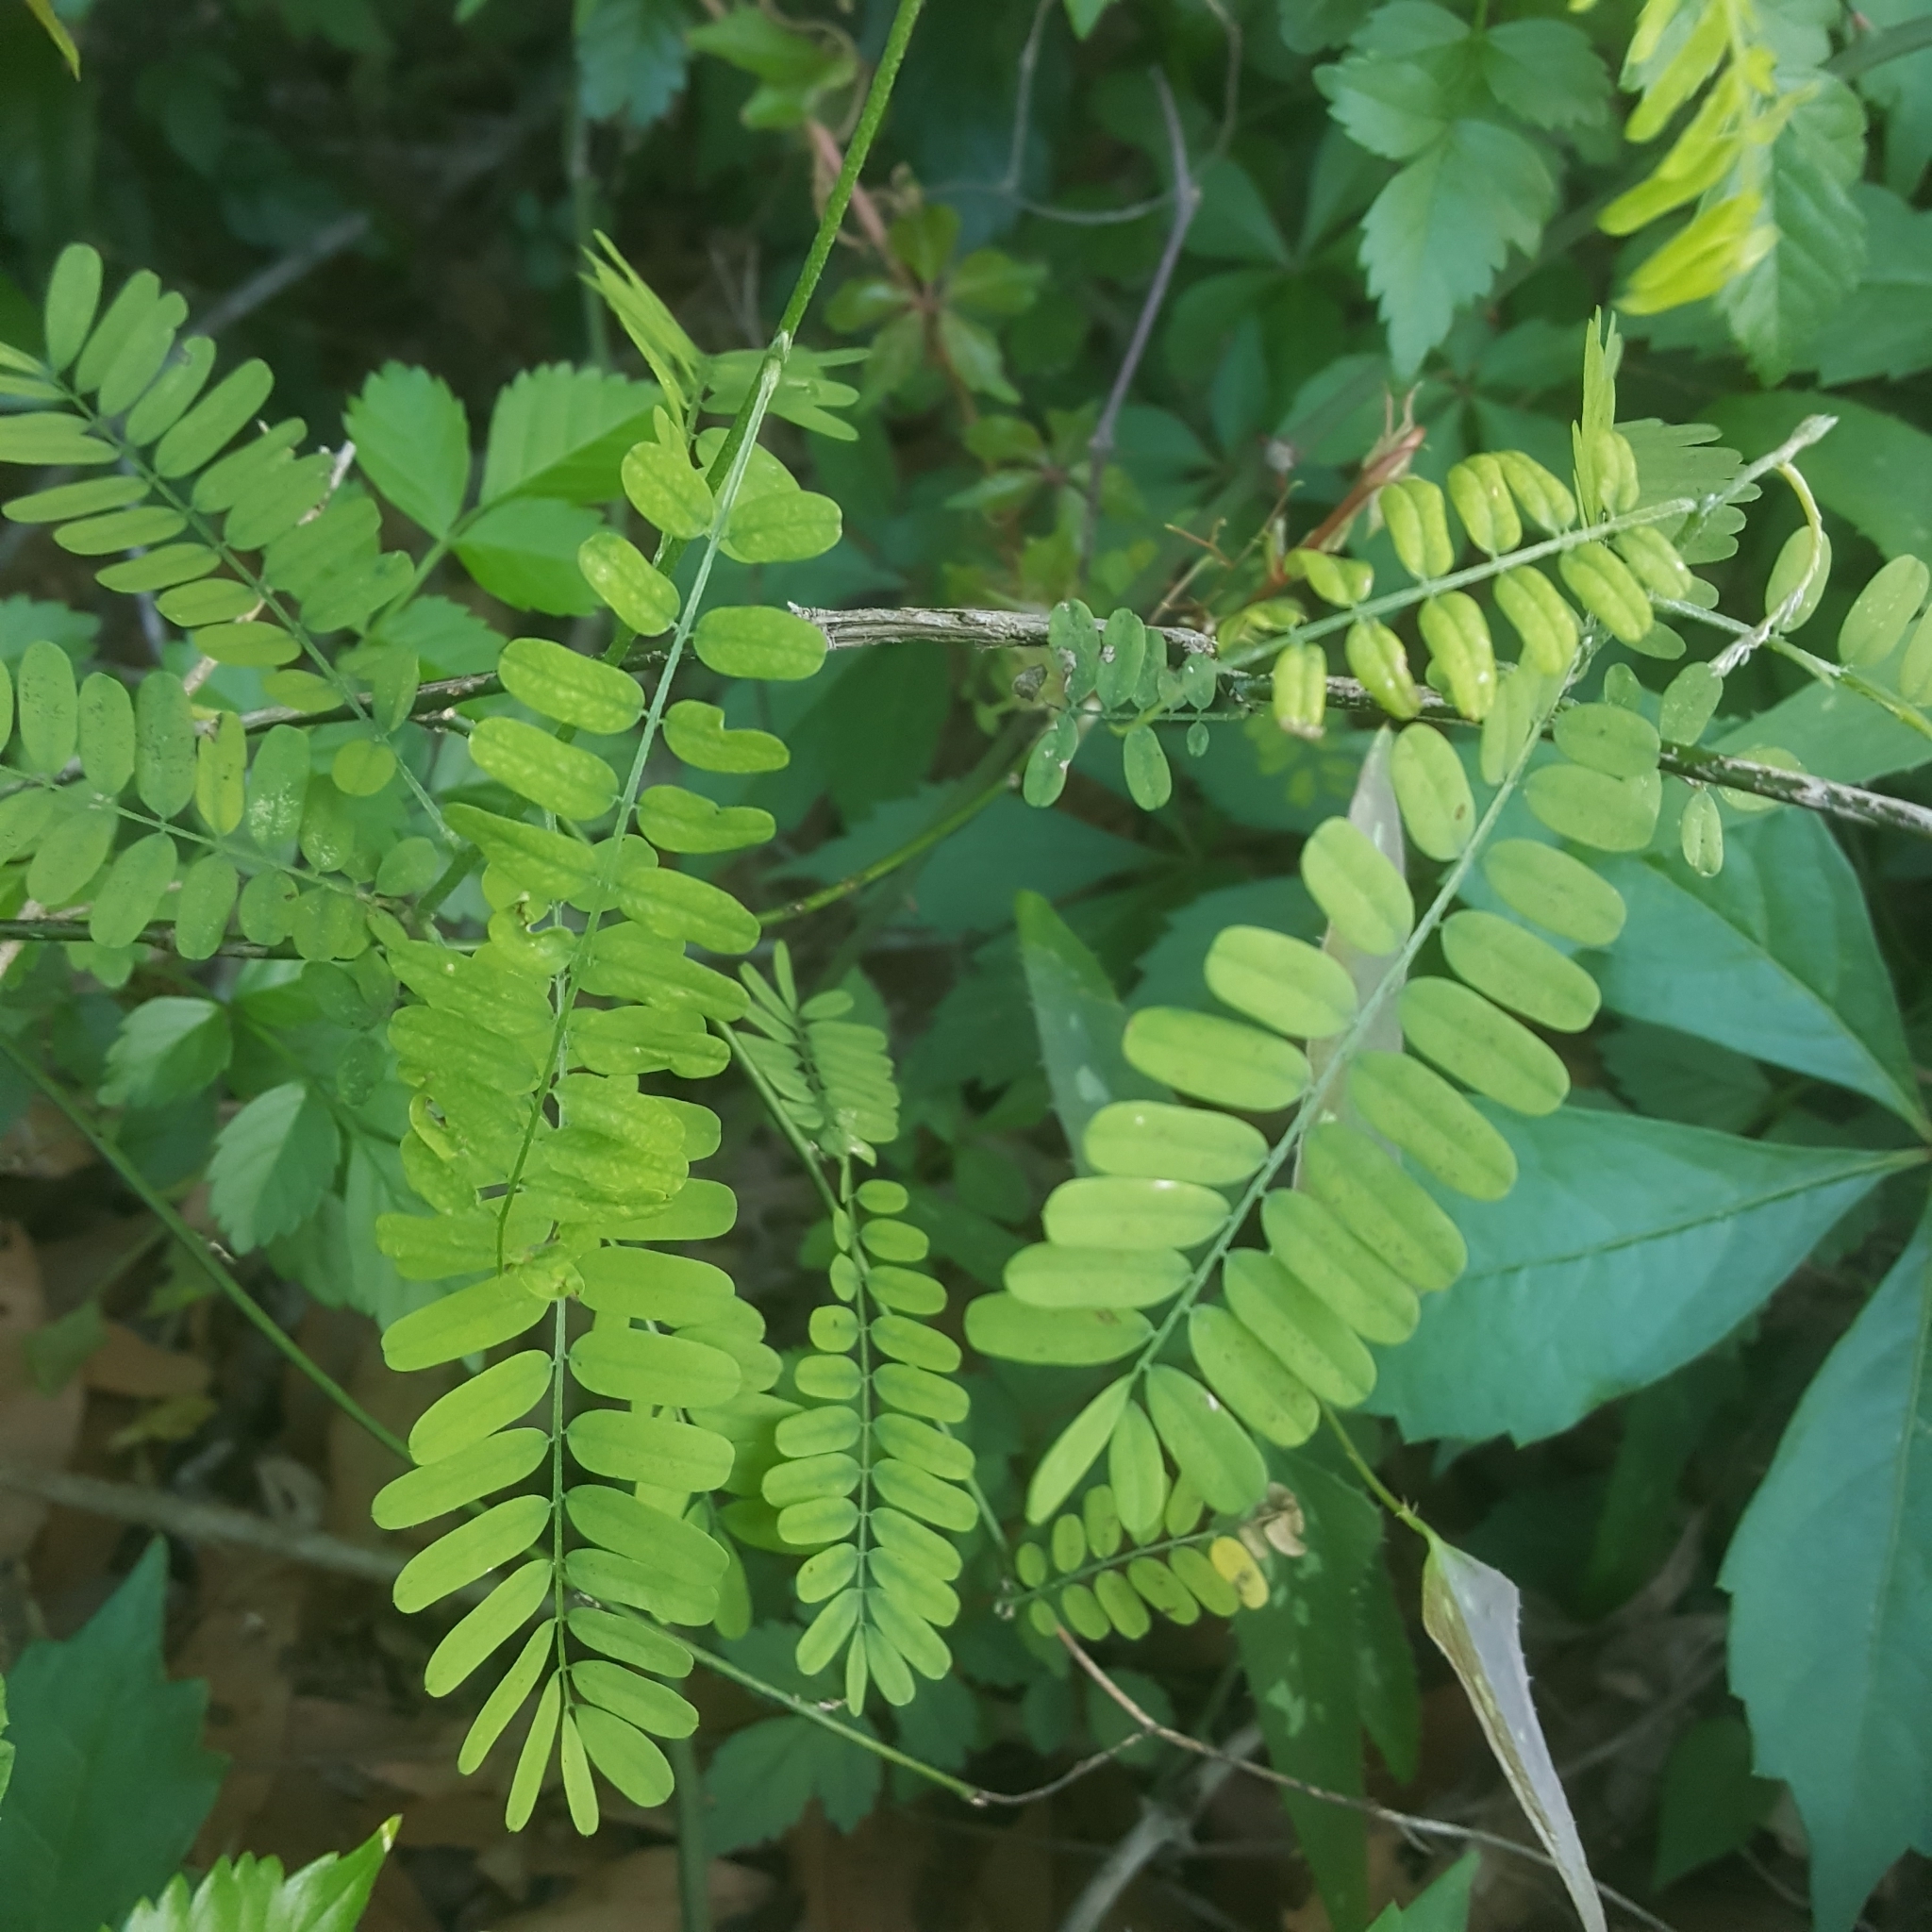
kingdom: Plantae
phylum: Tracheophyta
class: Magnoliopsida
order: Fabales
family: Fabaceae
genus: Abrus
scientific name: Abrus precatorius
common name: Rosarypea
